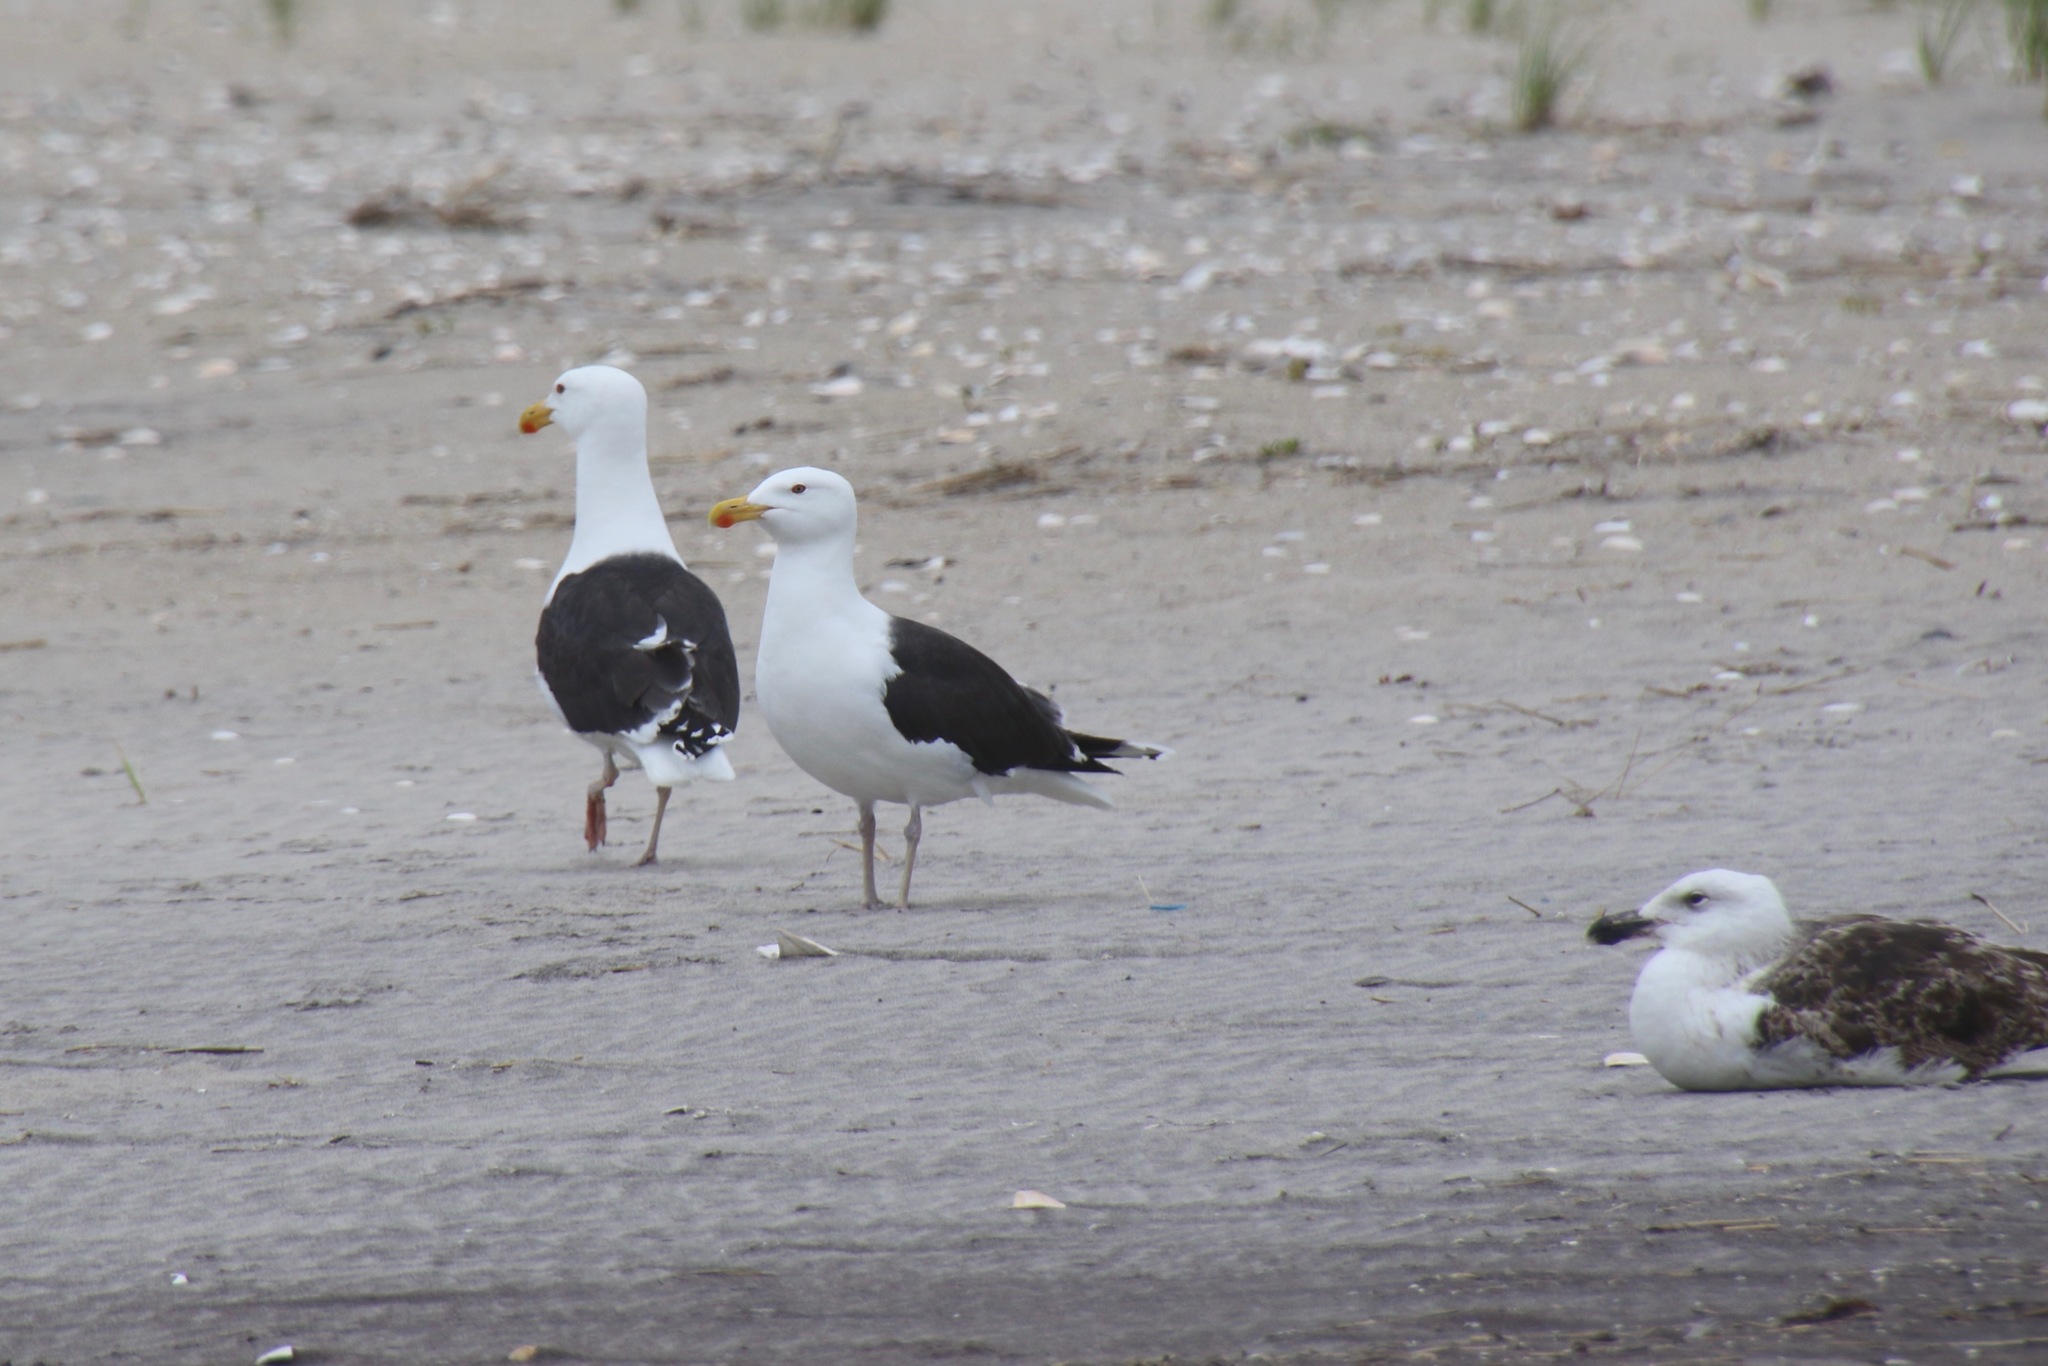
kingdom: Animalia
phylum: Chordata
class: Aves
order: Charadriiformes
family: Laridae
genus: Larus
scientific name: Larus marinus
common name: Great black-backed gull
